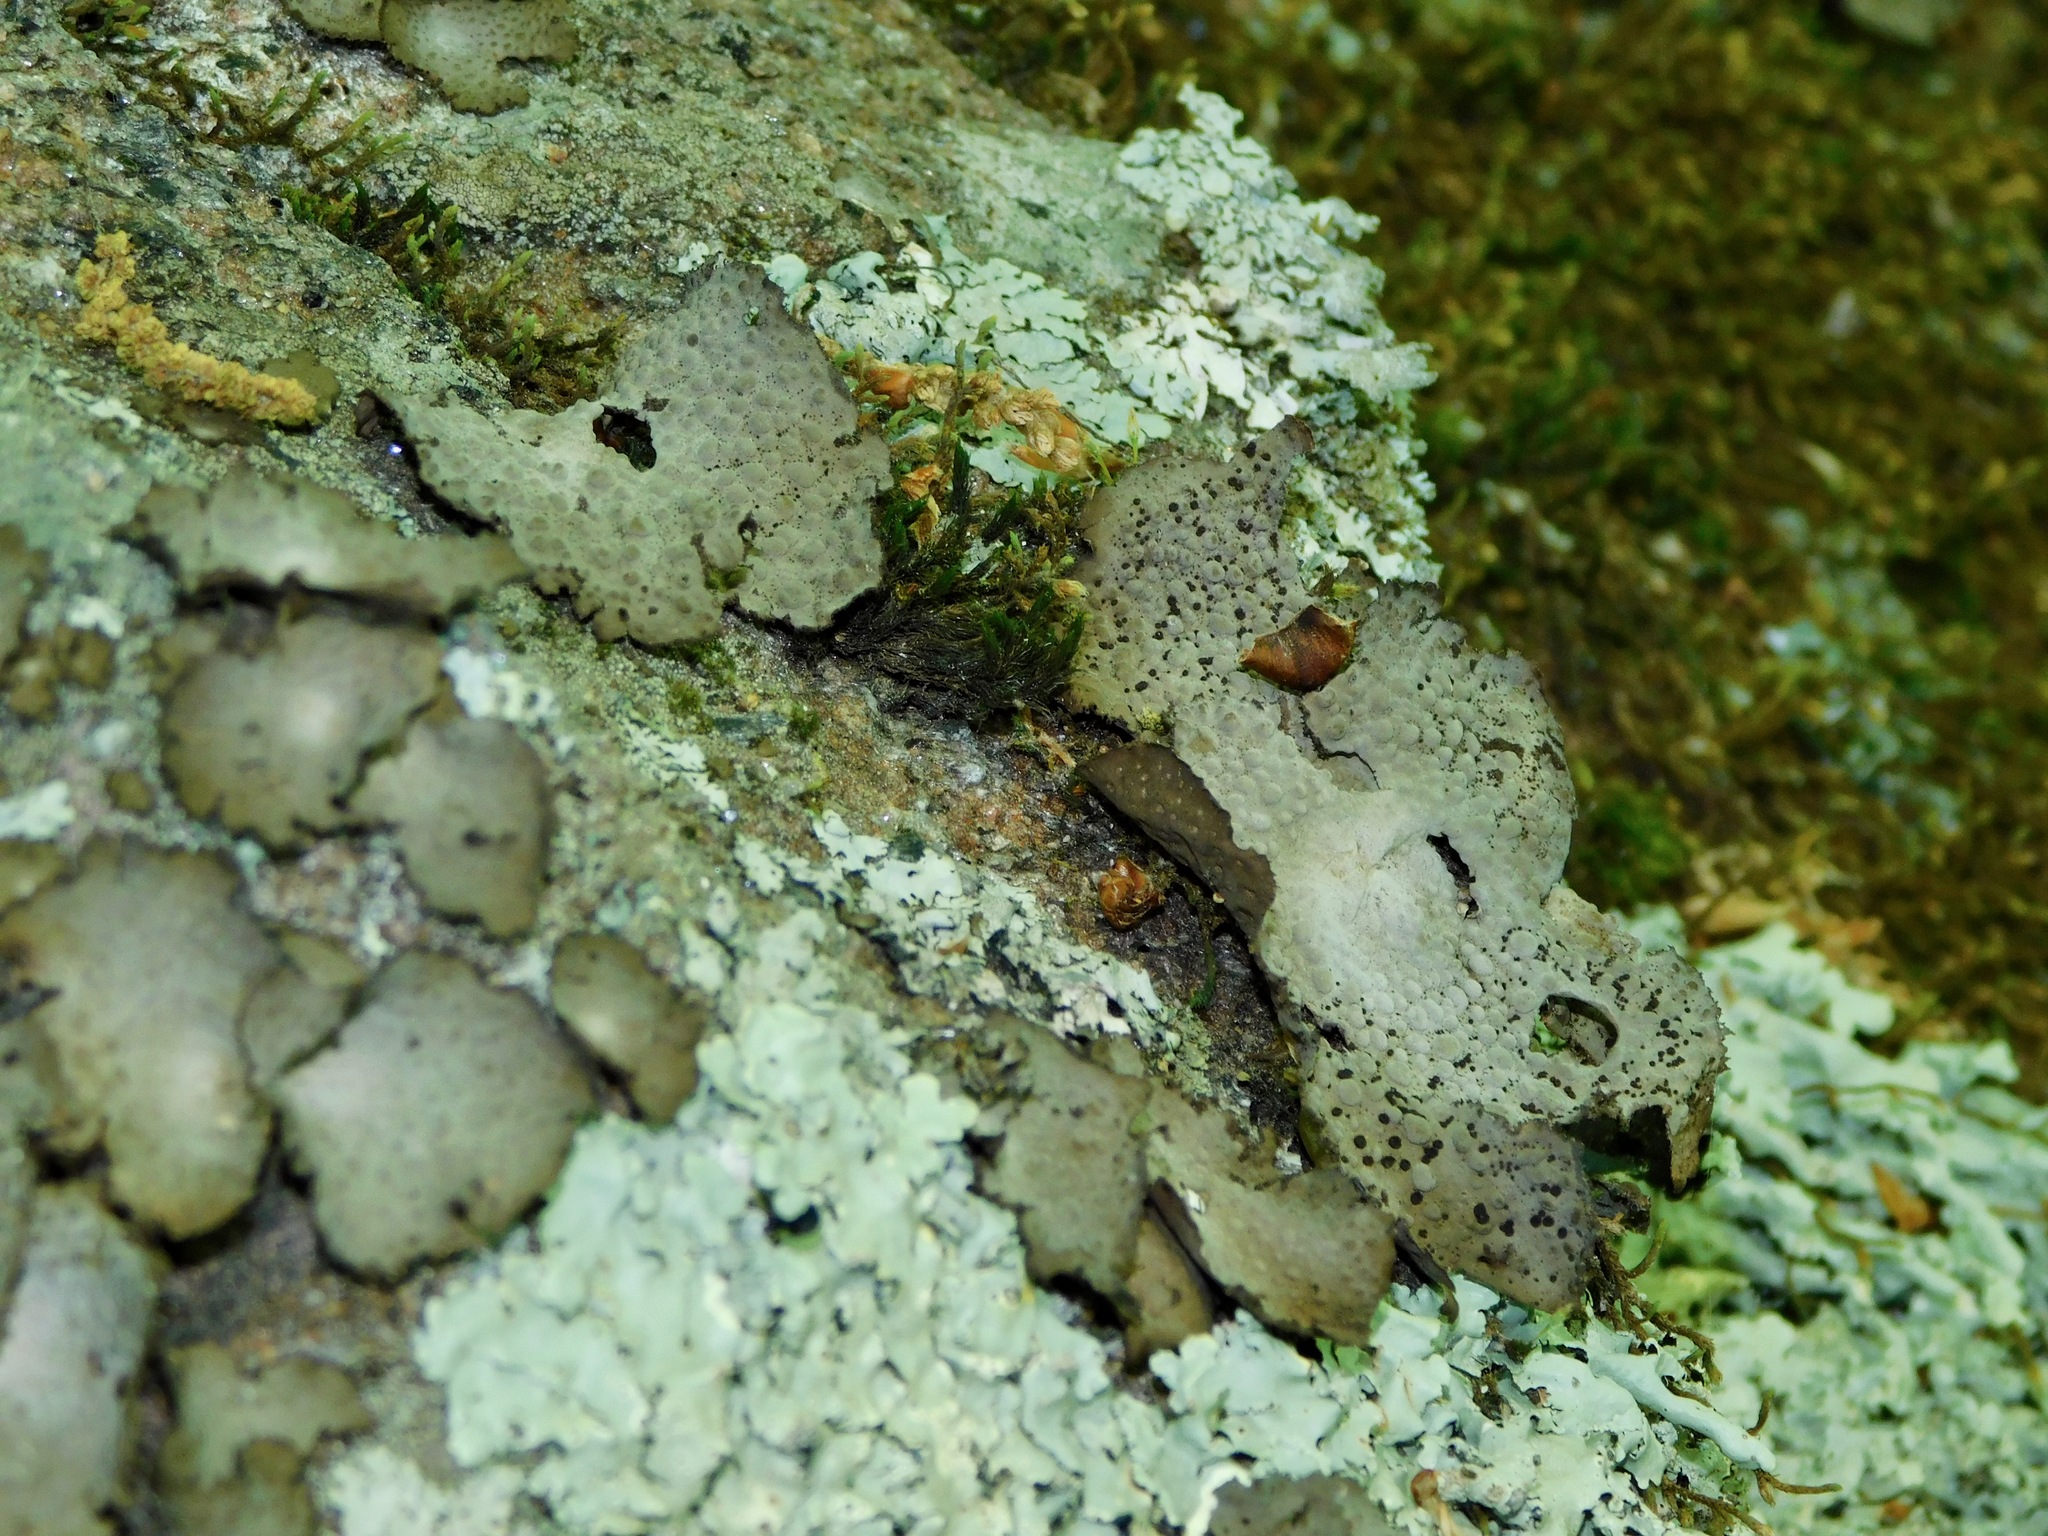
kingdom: Fungi
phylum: Ascomycota
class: Lecanoromycetes
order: Umbilicariales
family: Umbilicariaceae
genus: Lasallia
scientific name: Lasallia papulosa
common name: Common toadskin lichen
